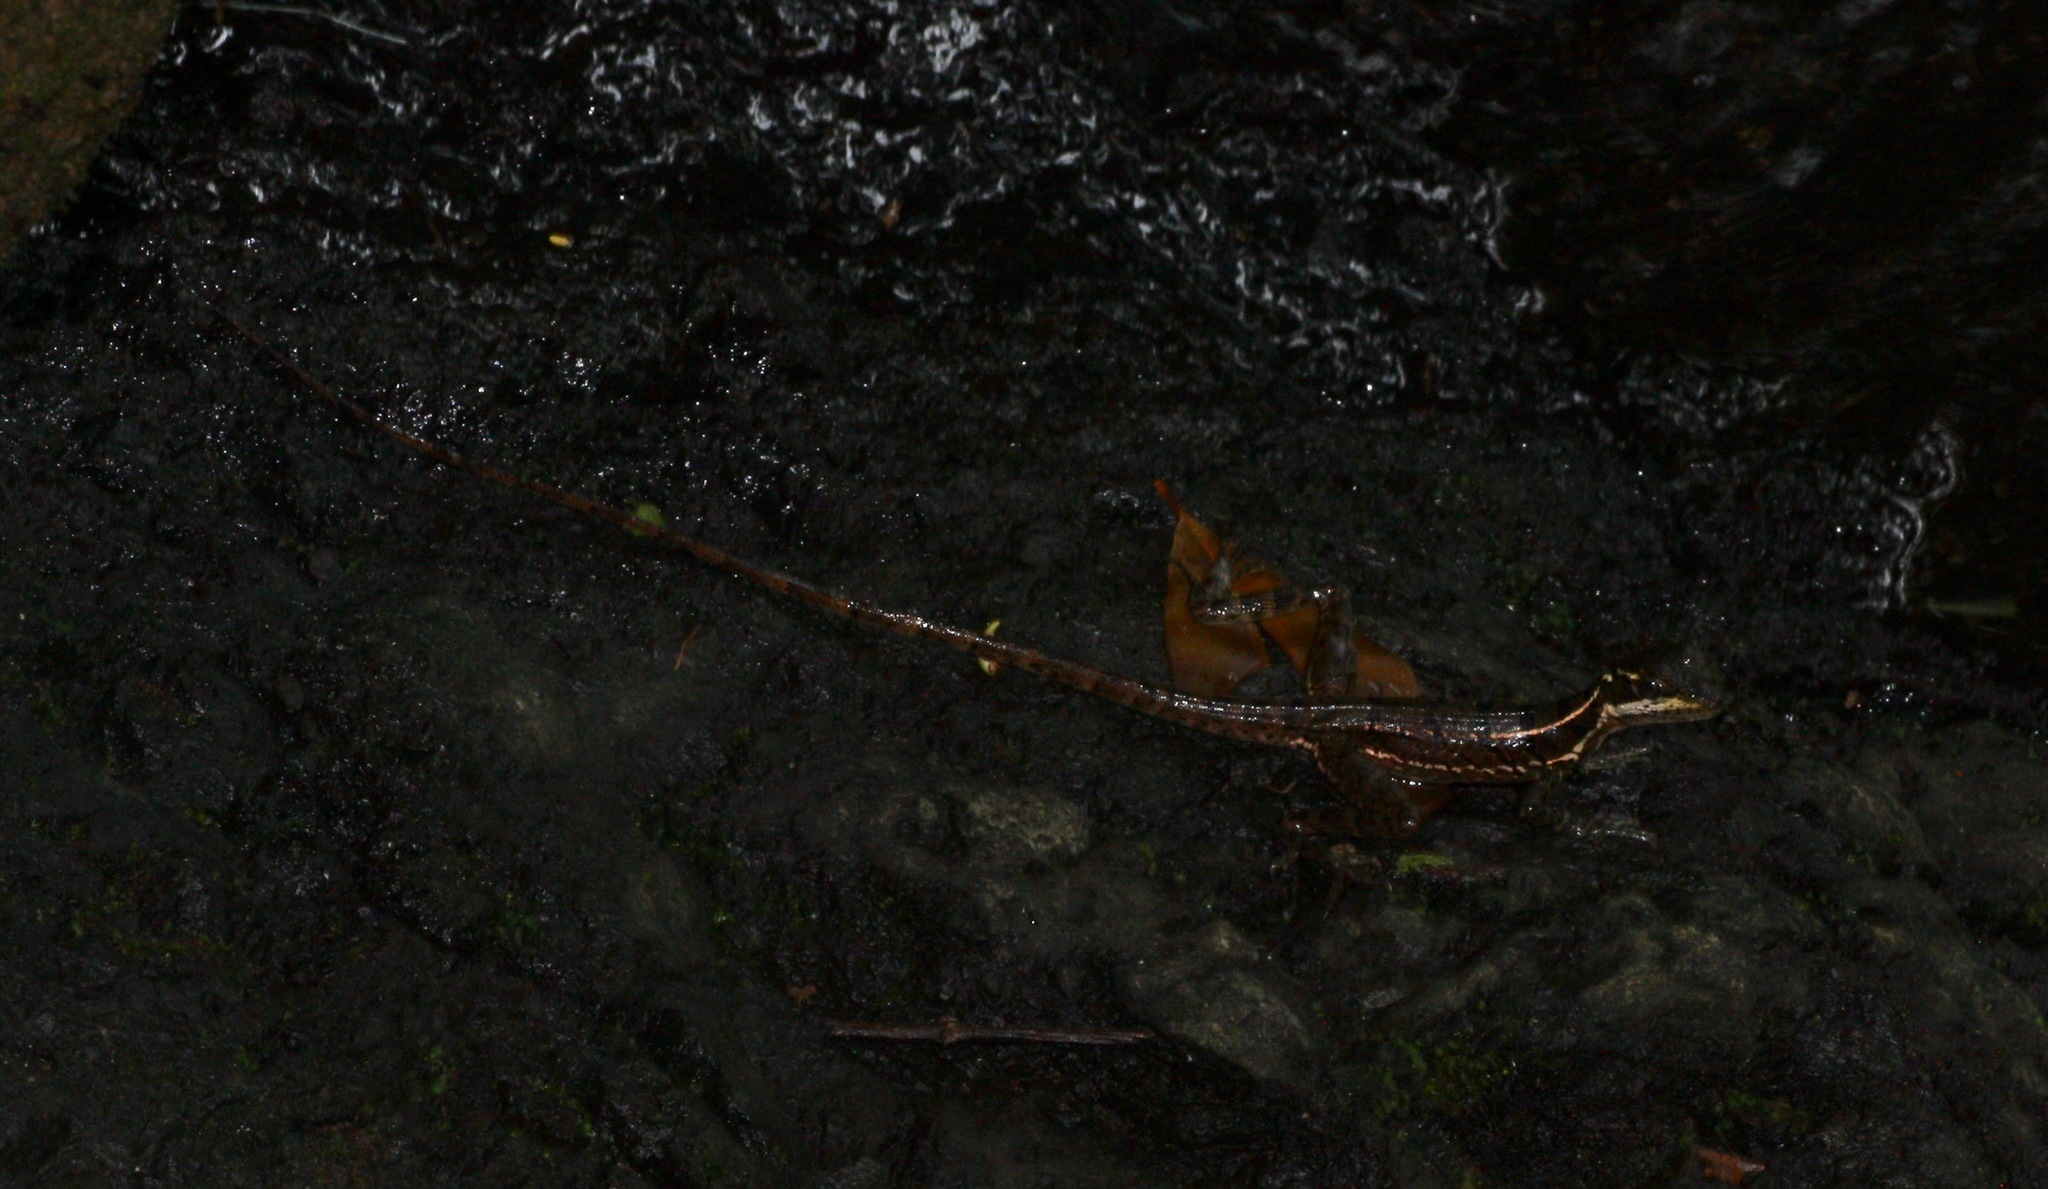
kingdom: Animalia
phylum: Chordata
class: Squamata
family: Corytophanidae
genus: Basiliscus
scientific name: Basiliscus basiliscus
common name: Common basilisk
